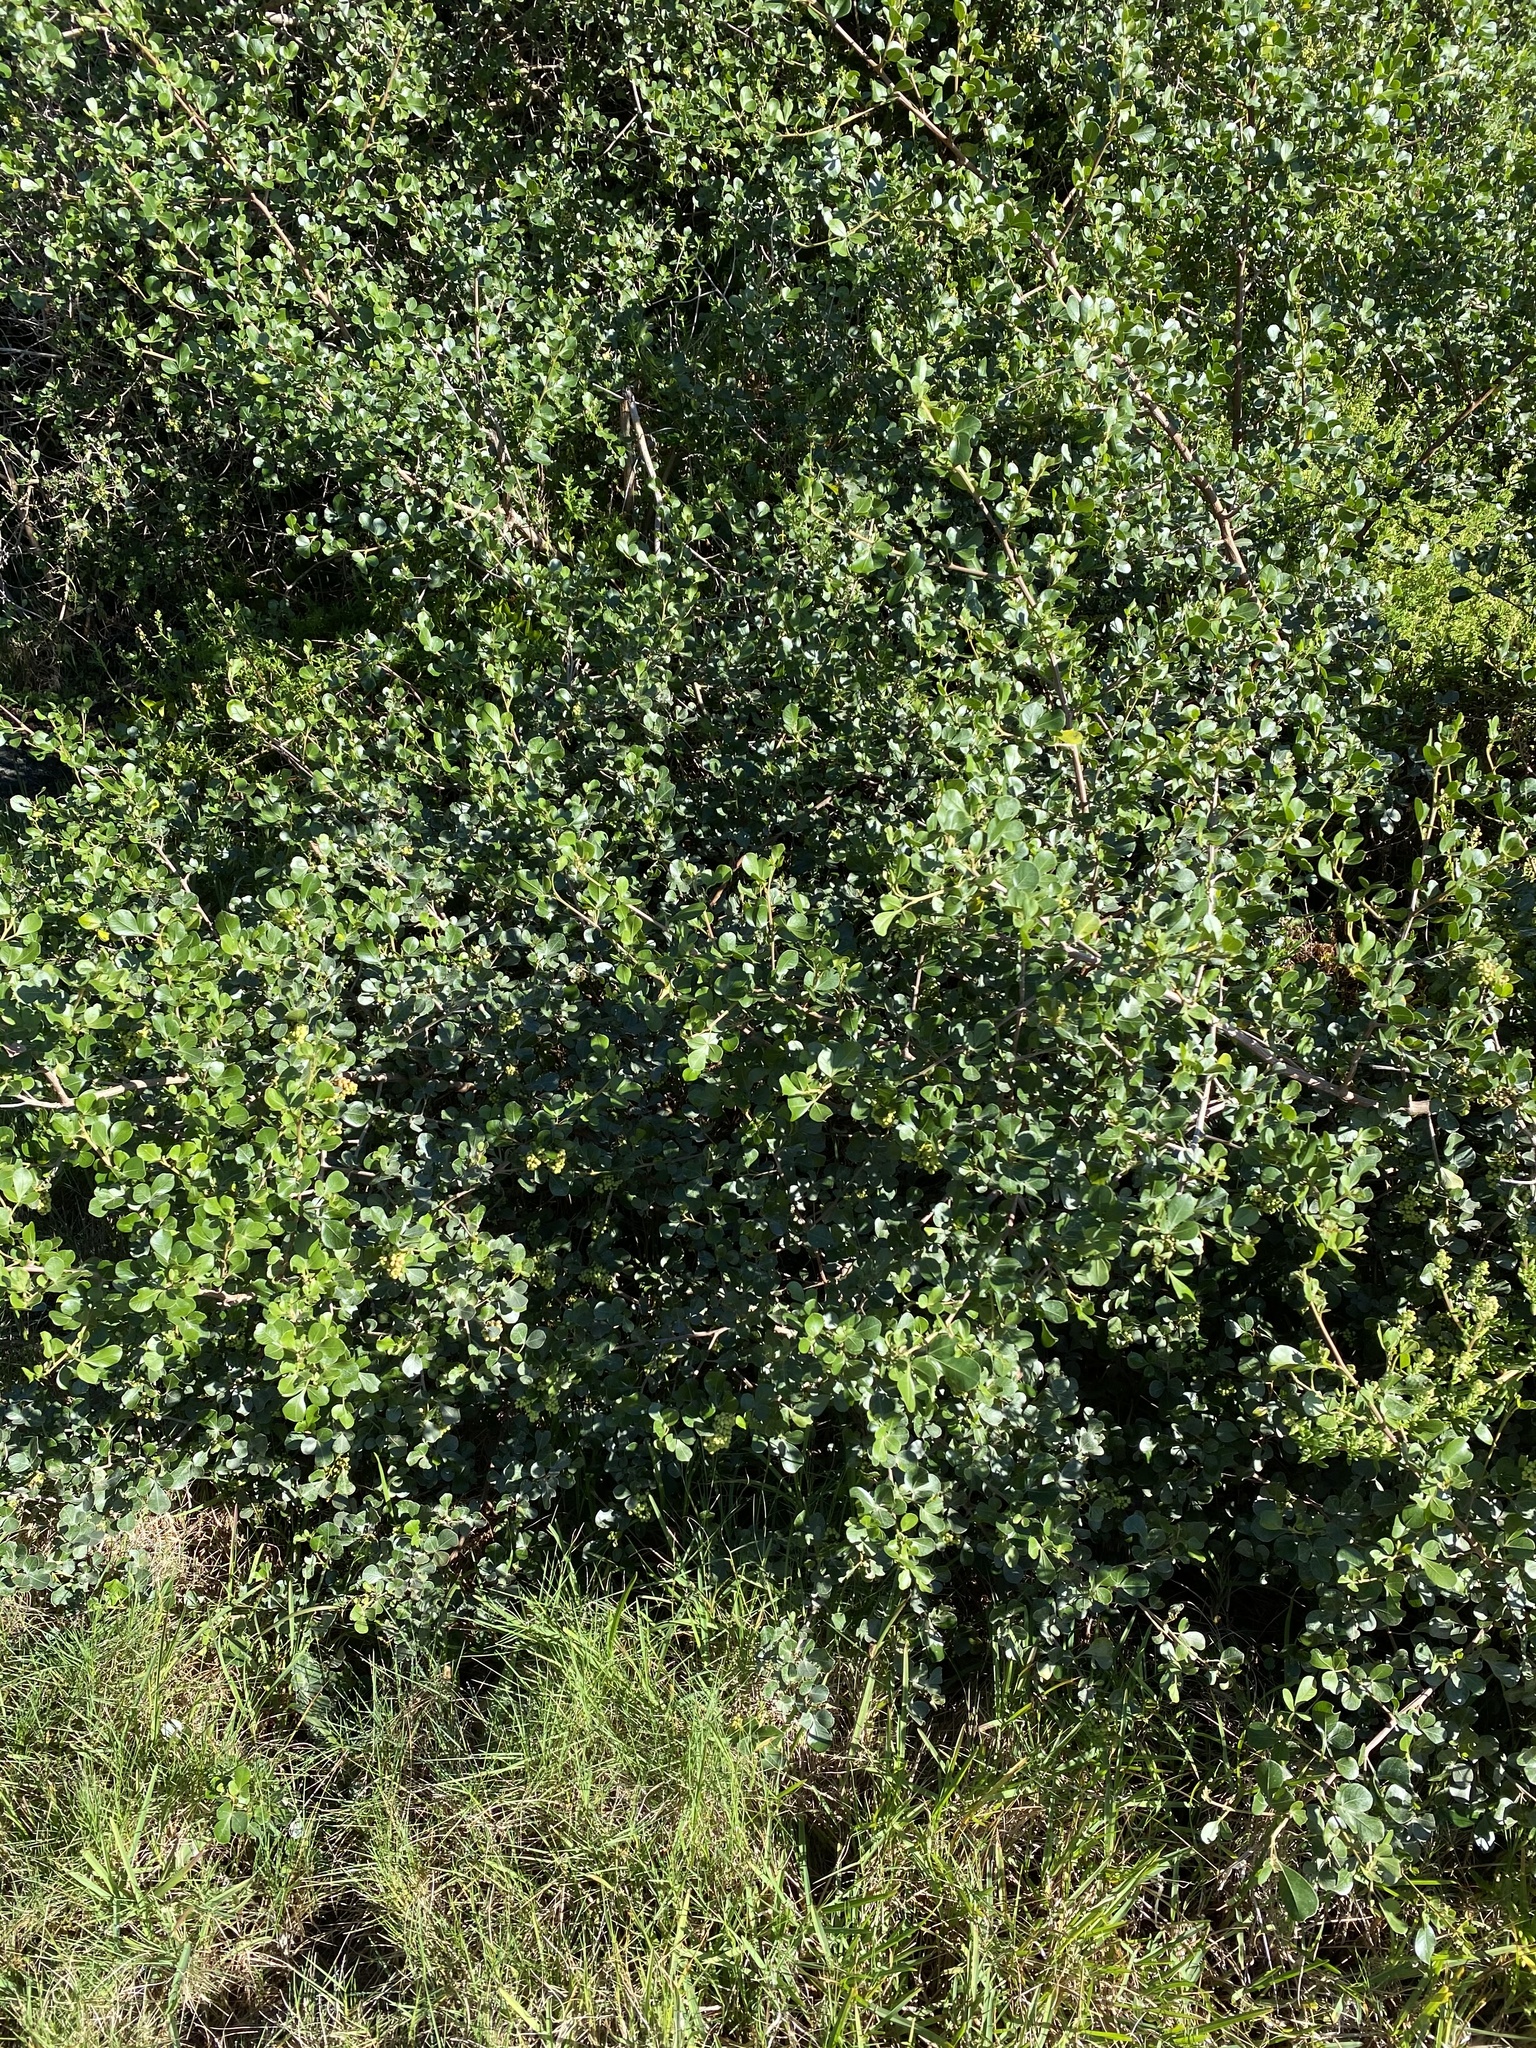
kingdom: Plantae
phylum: Tracheophyta
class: Magnoliopsida
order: Sapindales
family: Anacardiaceae
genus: Searsia
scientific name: Searsia glauca
